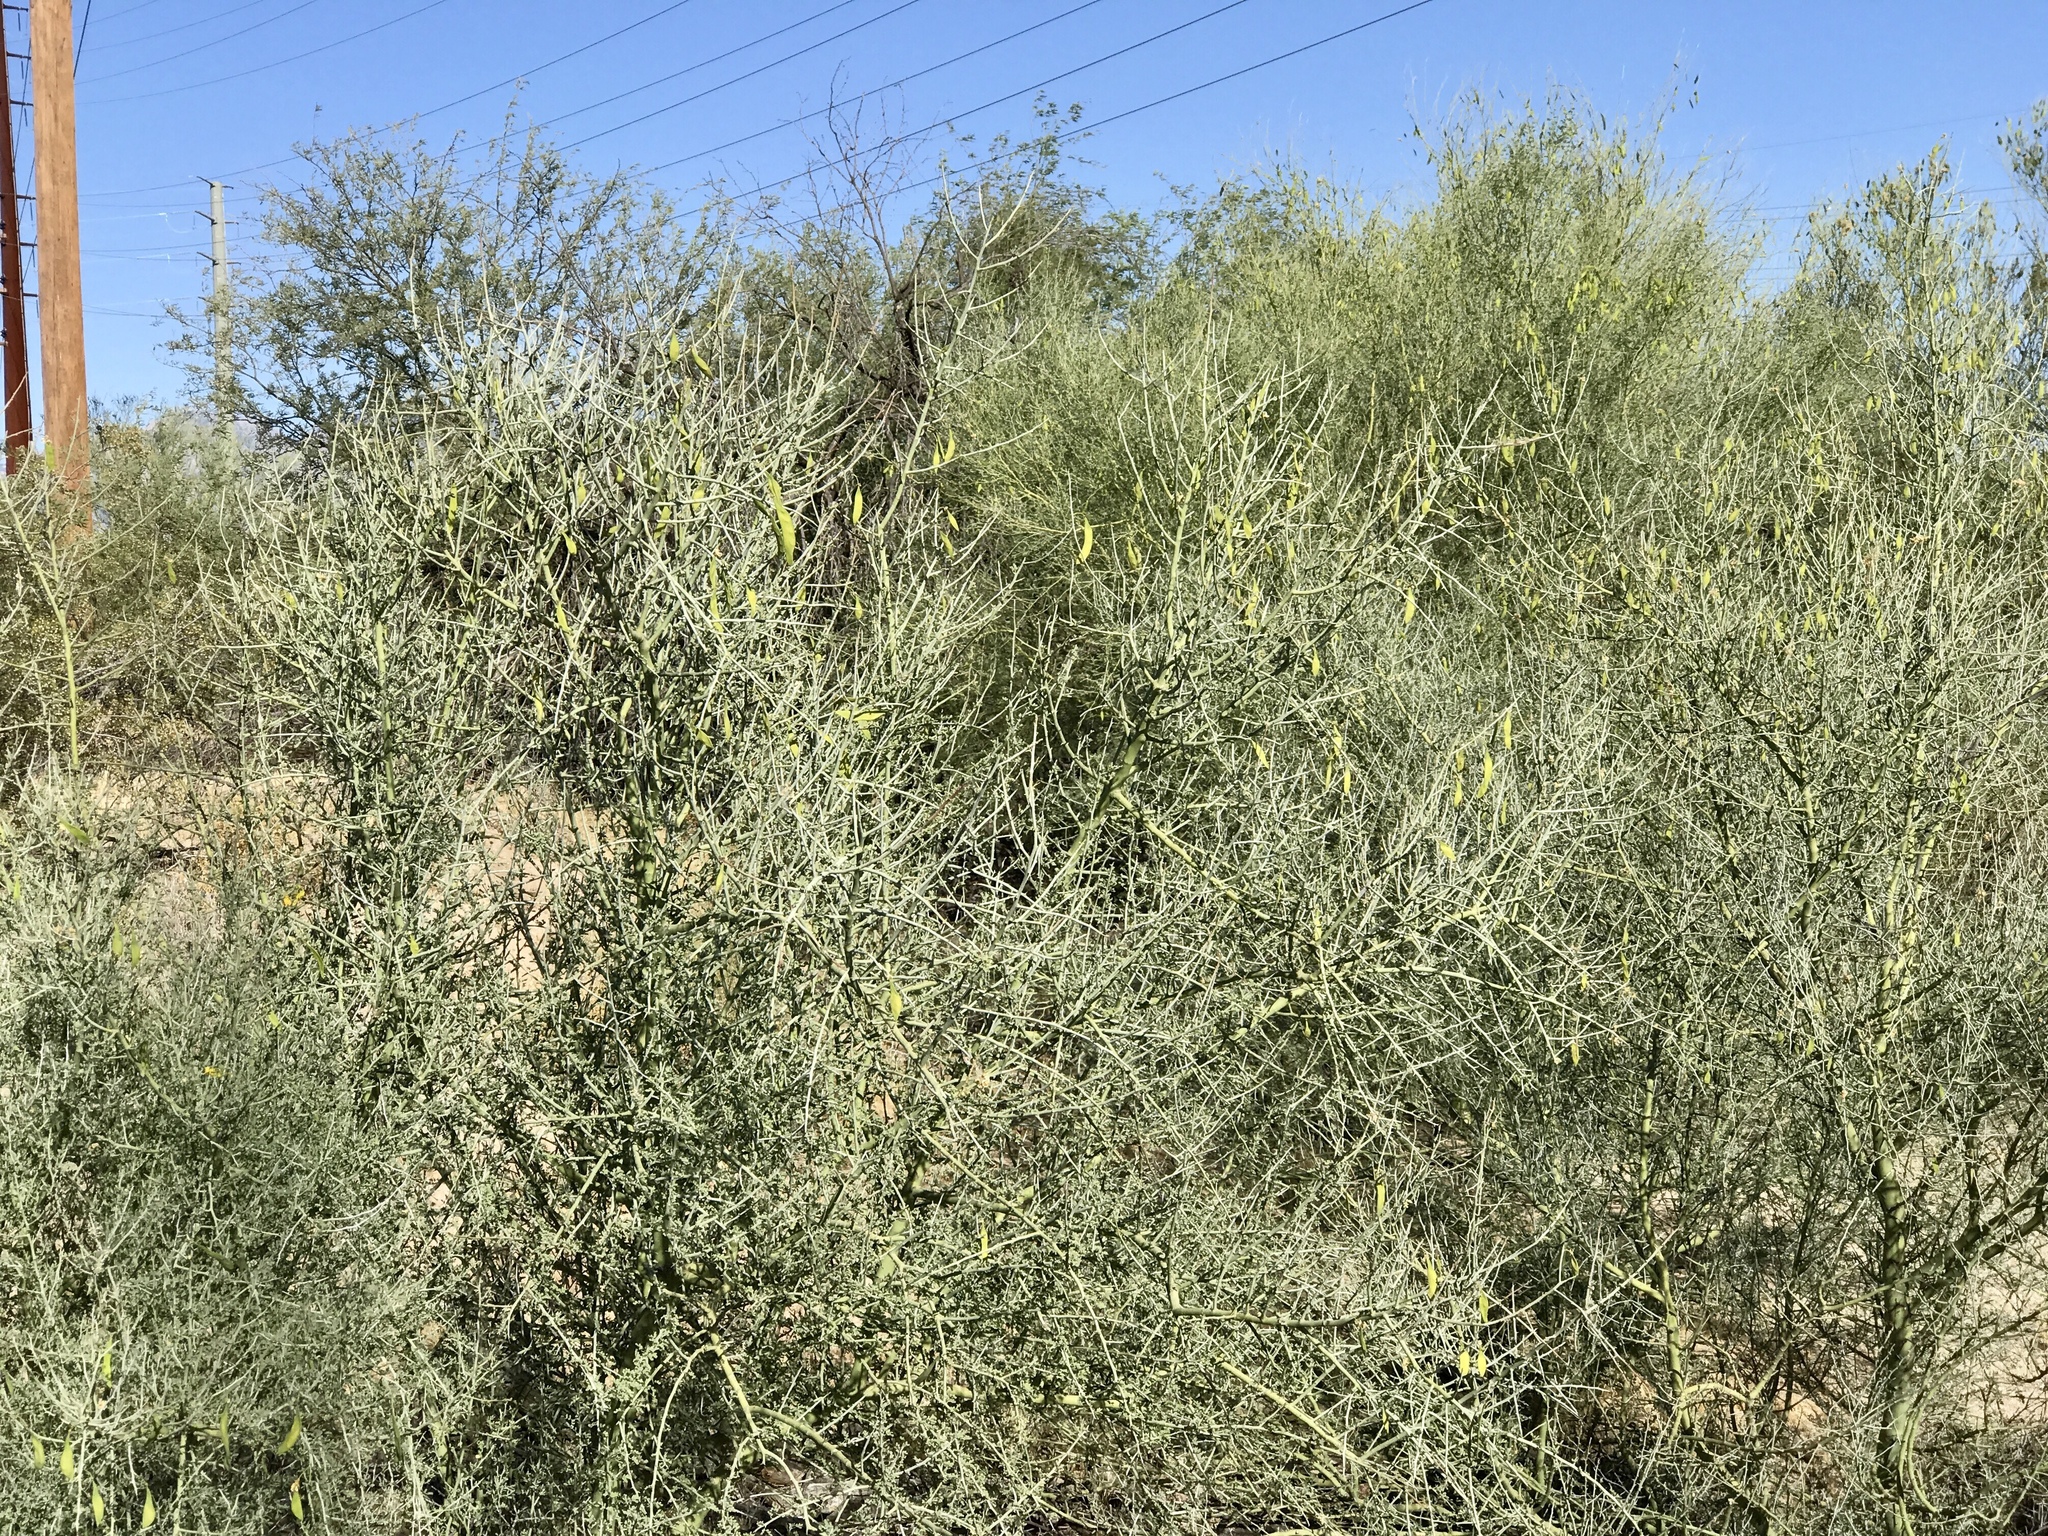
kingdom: Plantae
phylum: Tracheophyta
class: Magnoliopsida
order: Fabales
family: Fabaceae
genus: Parkinsonia
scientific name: Parkinsonia florida
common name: Blue paloverde
